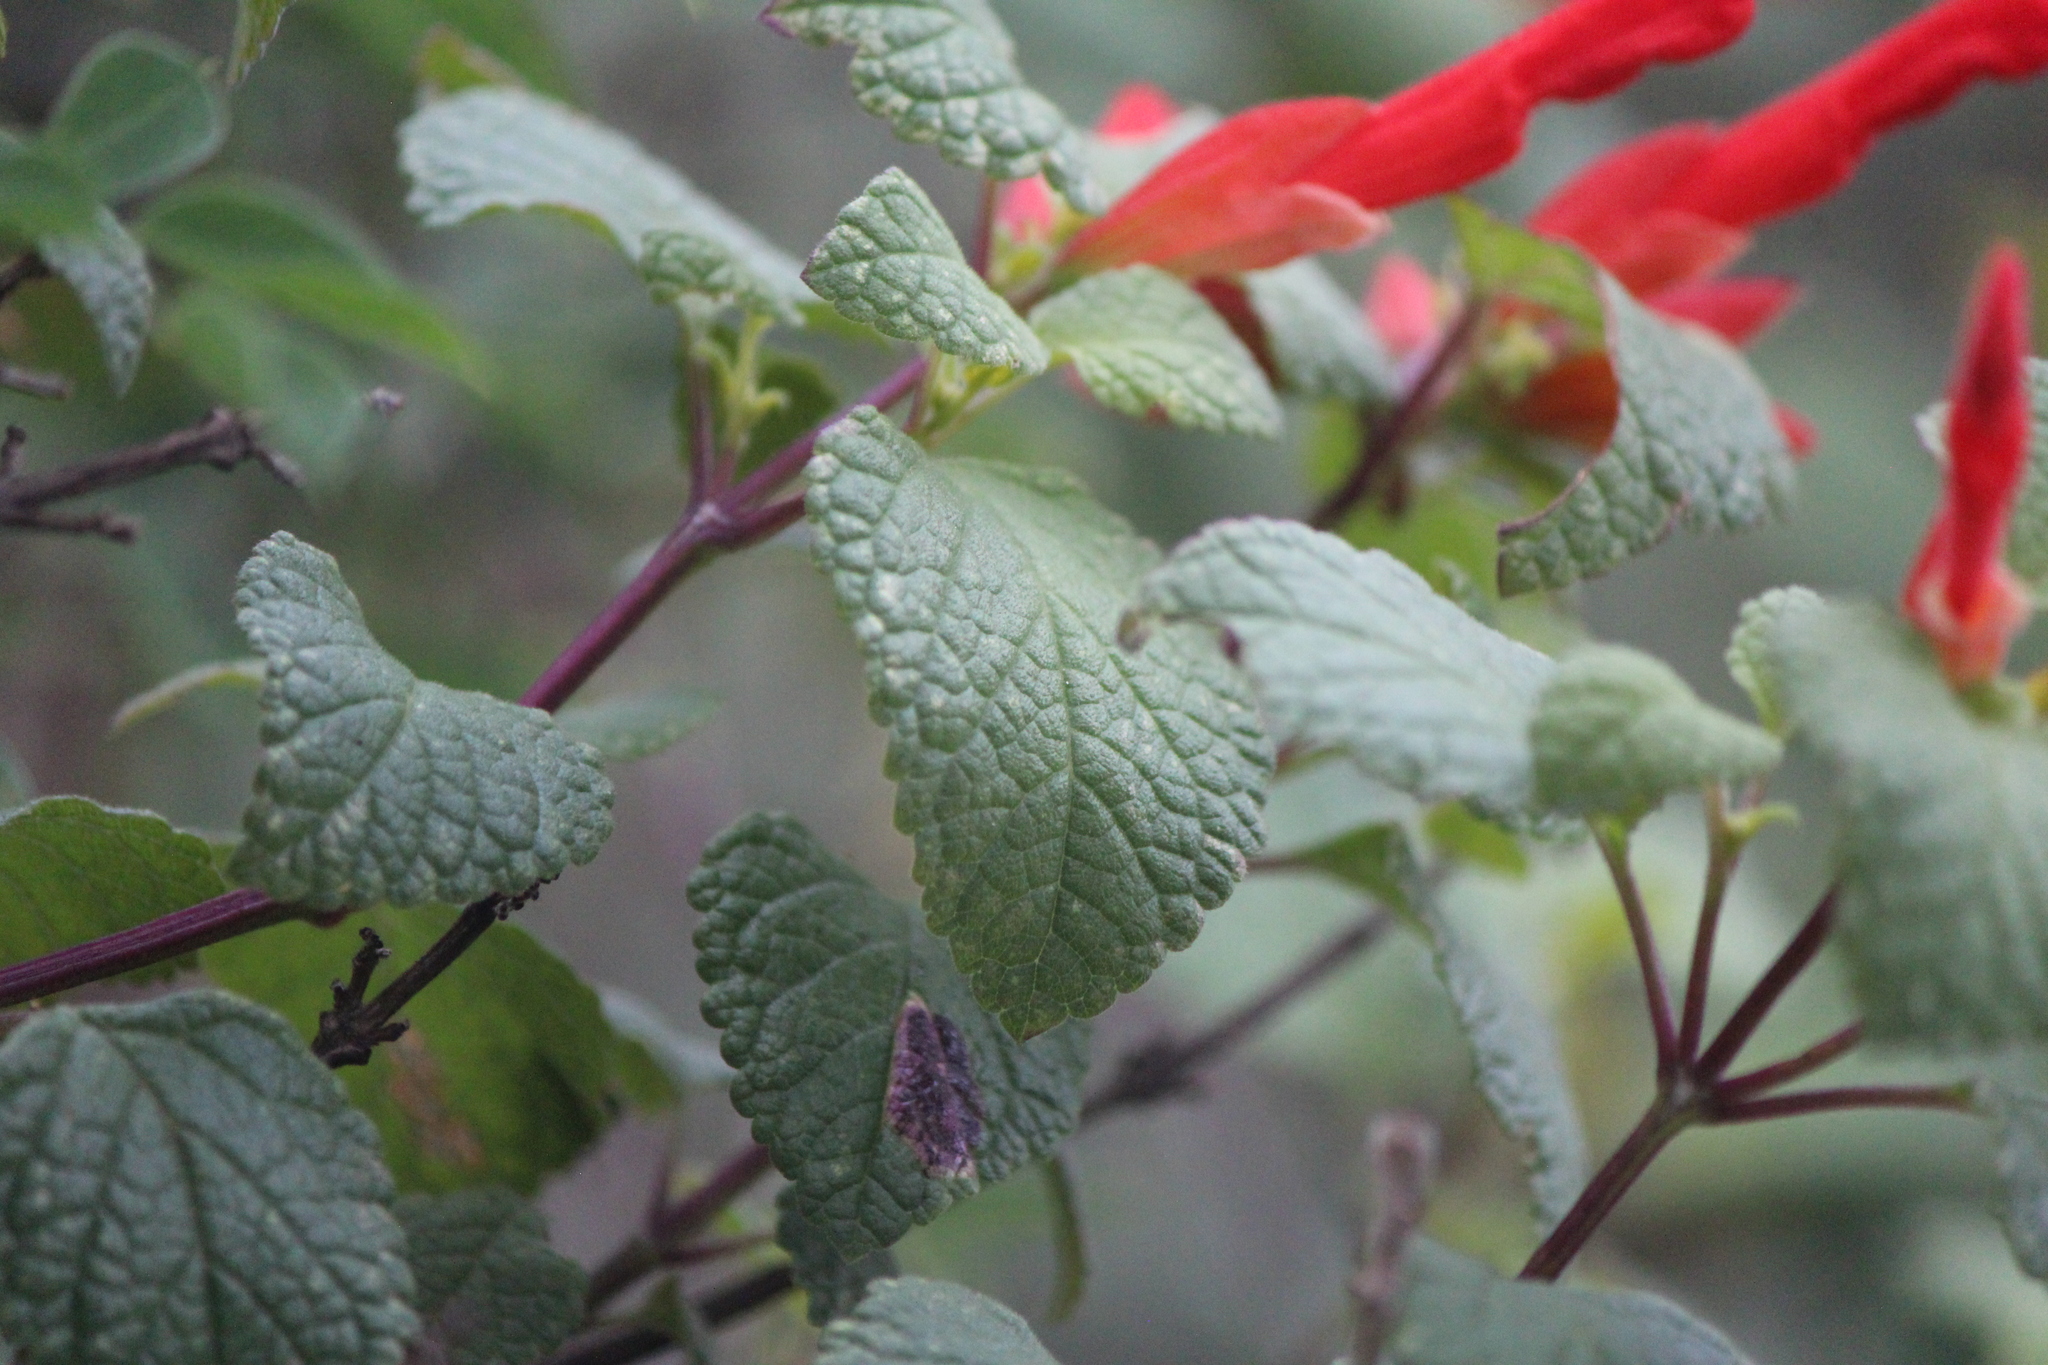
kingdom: Plantae
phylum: Tracheophyta
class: Magnoliopsida
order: Lamiales
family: Lamiaceae
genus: Salvia
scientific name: Salvia regla
